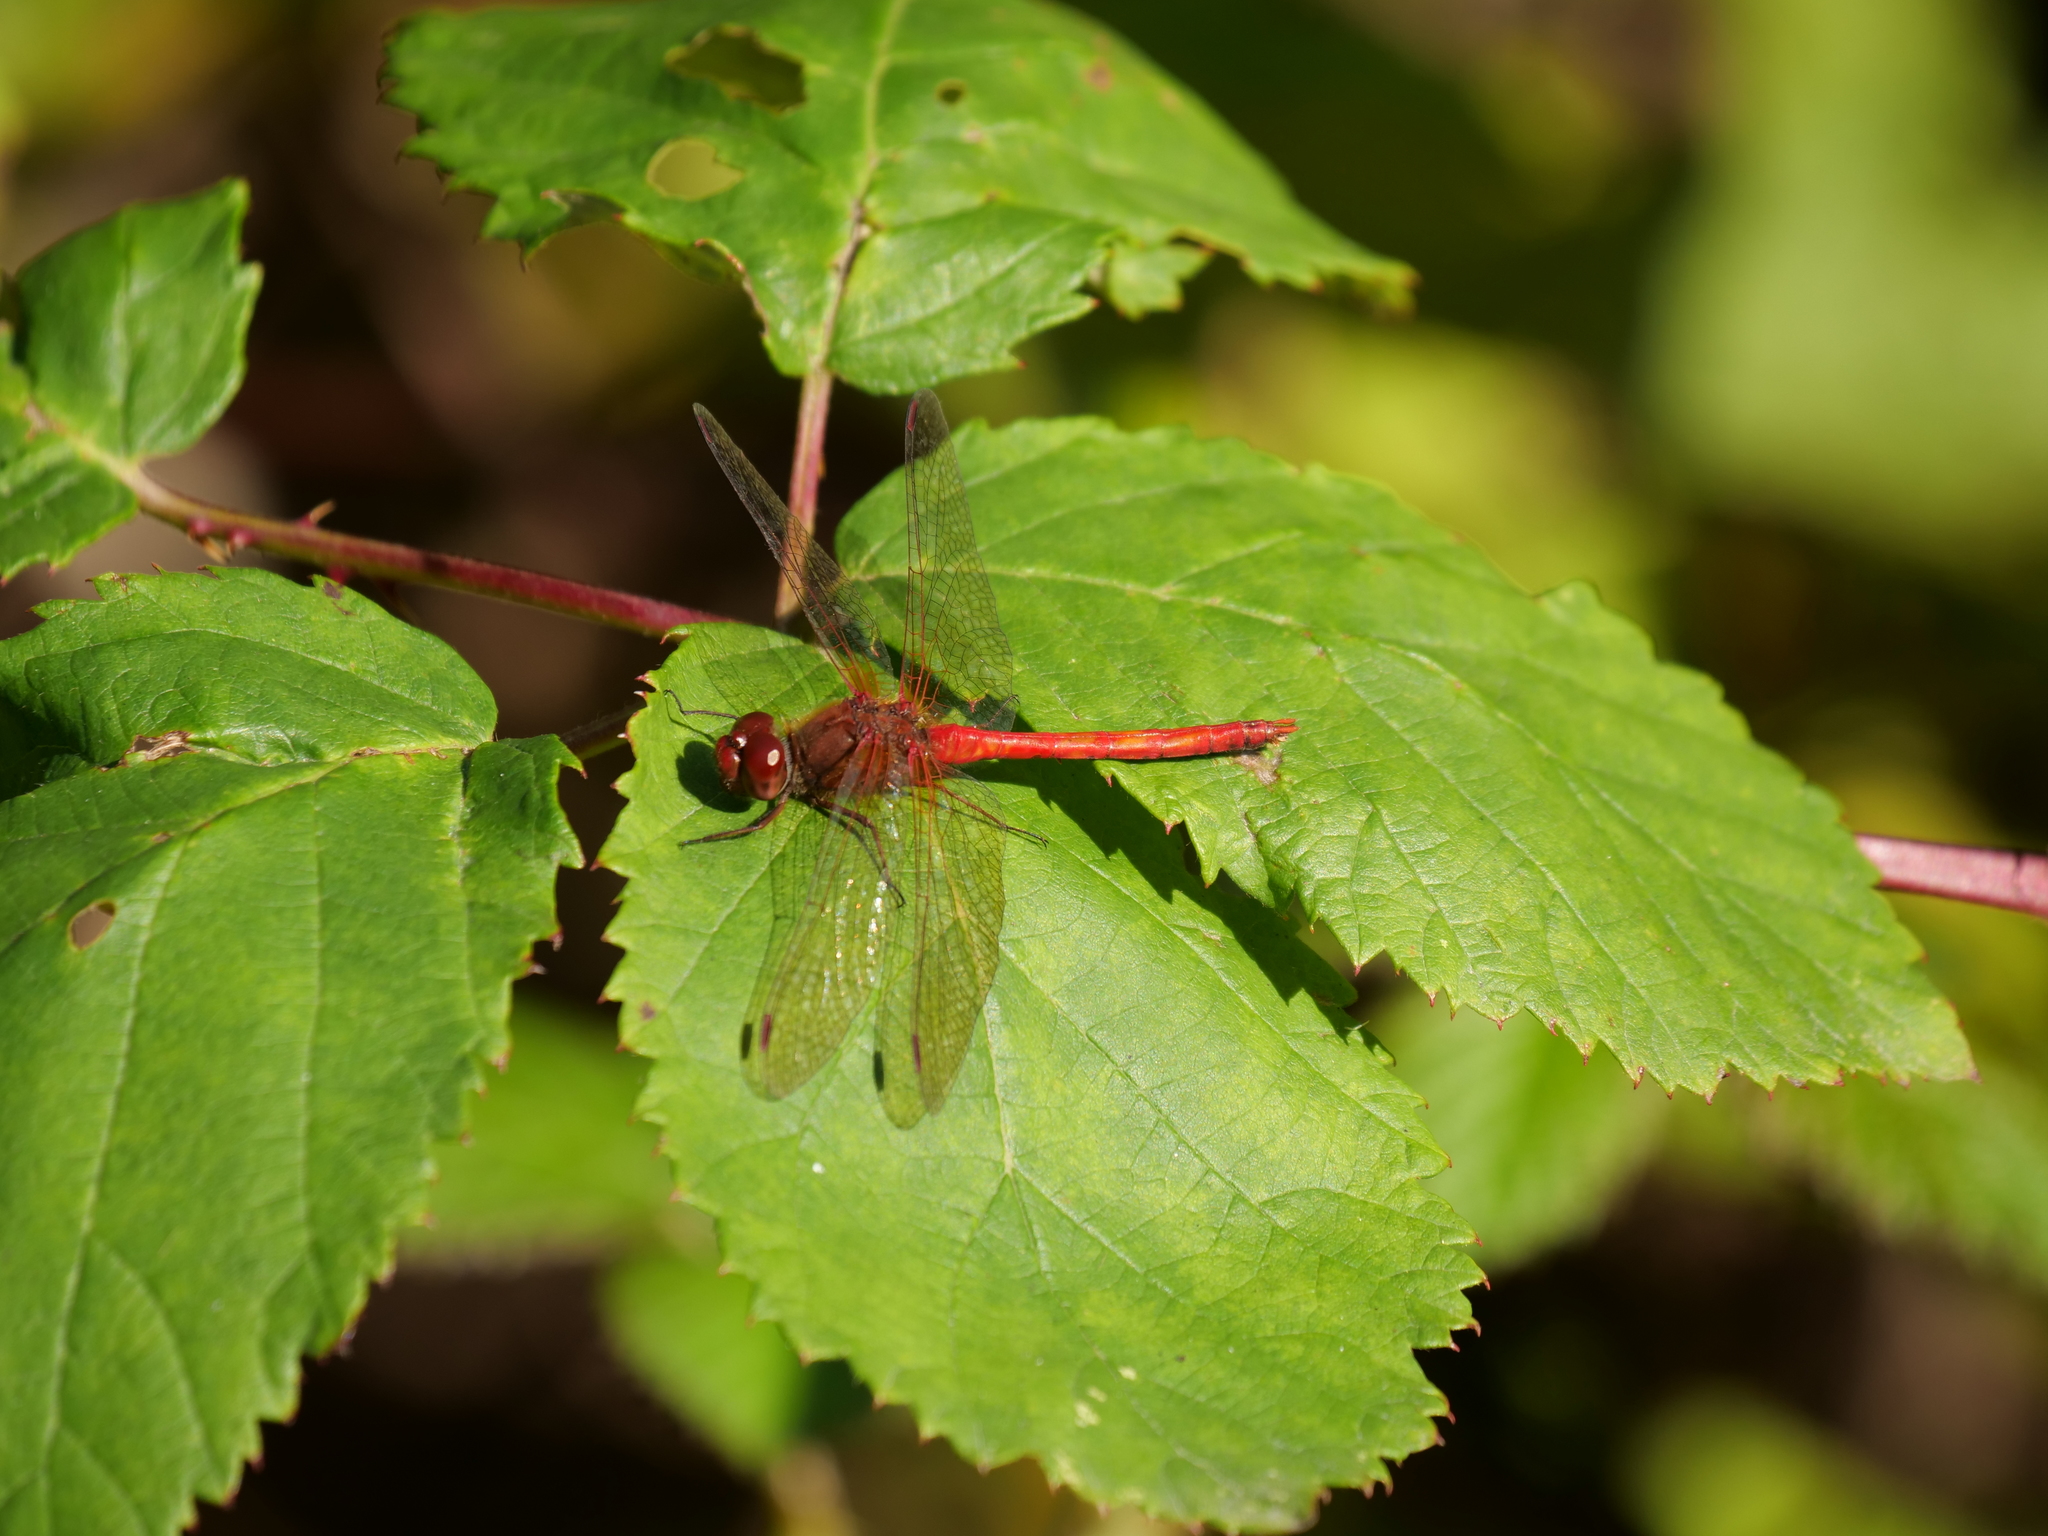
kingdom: Animalia
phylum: Arthropoda
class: Insecta
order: Odonata
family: Libellulidae
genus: Sympetrum
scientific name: Sympetrum vicinum
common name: Autumn meadowhawk
